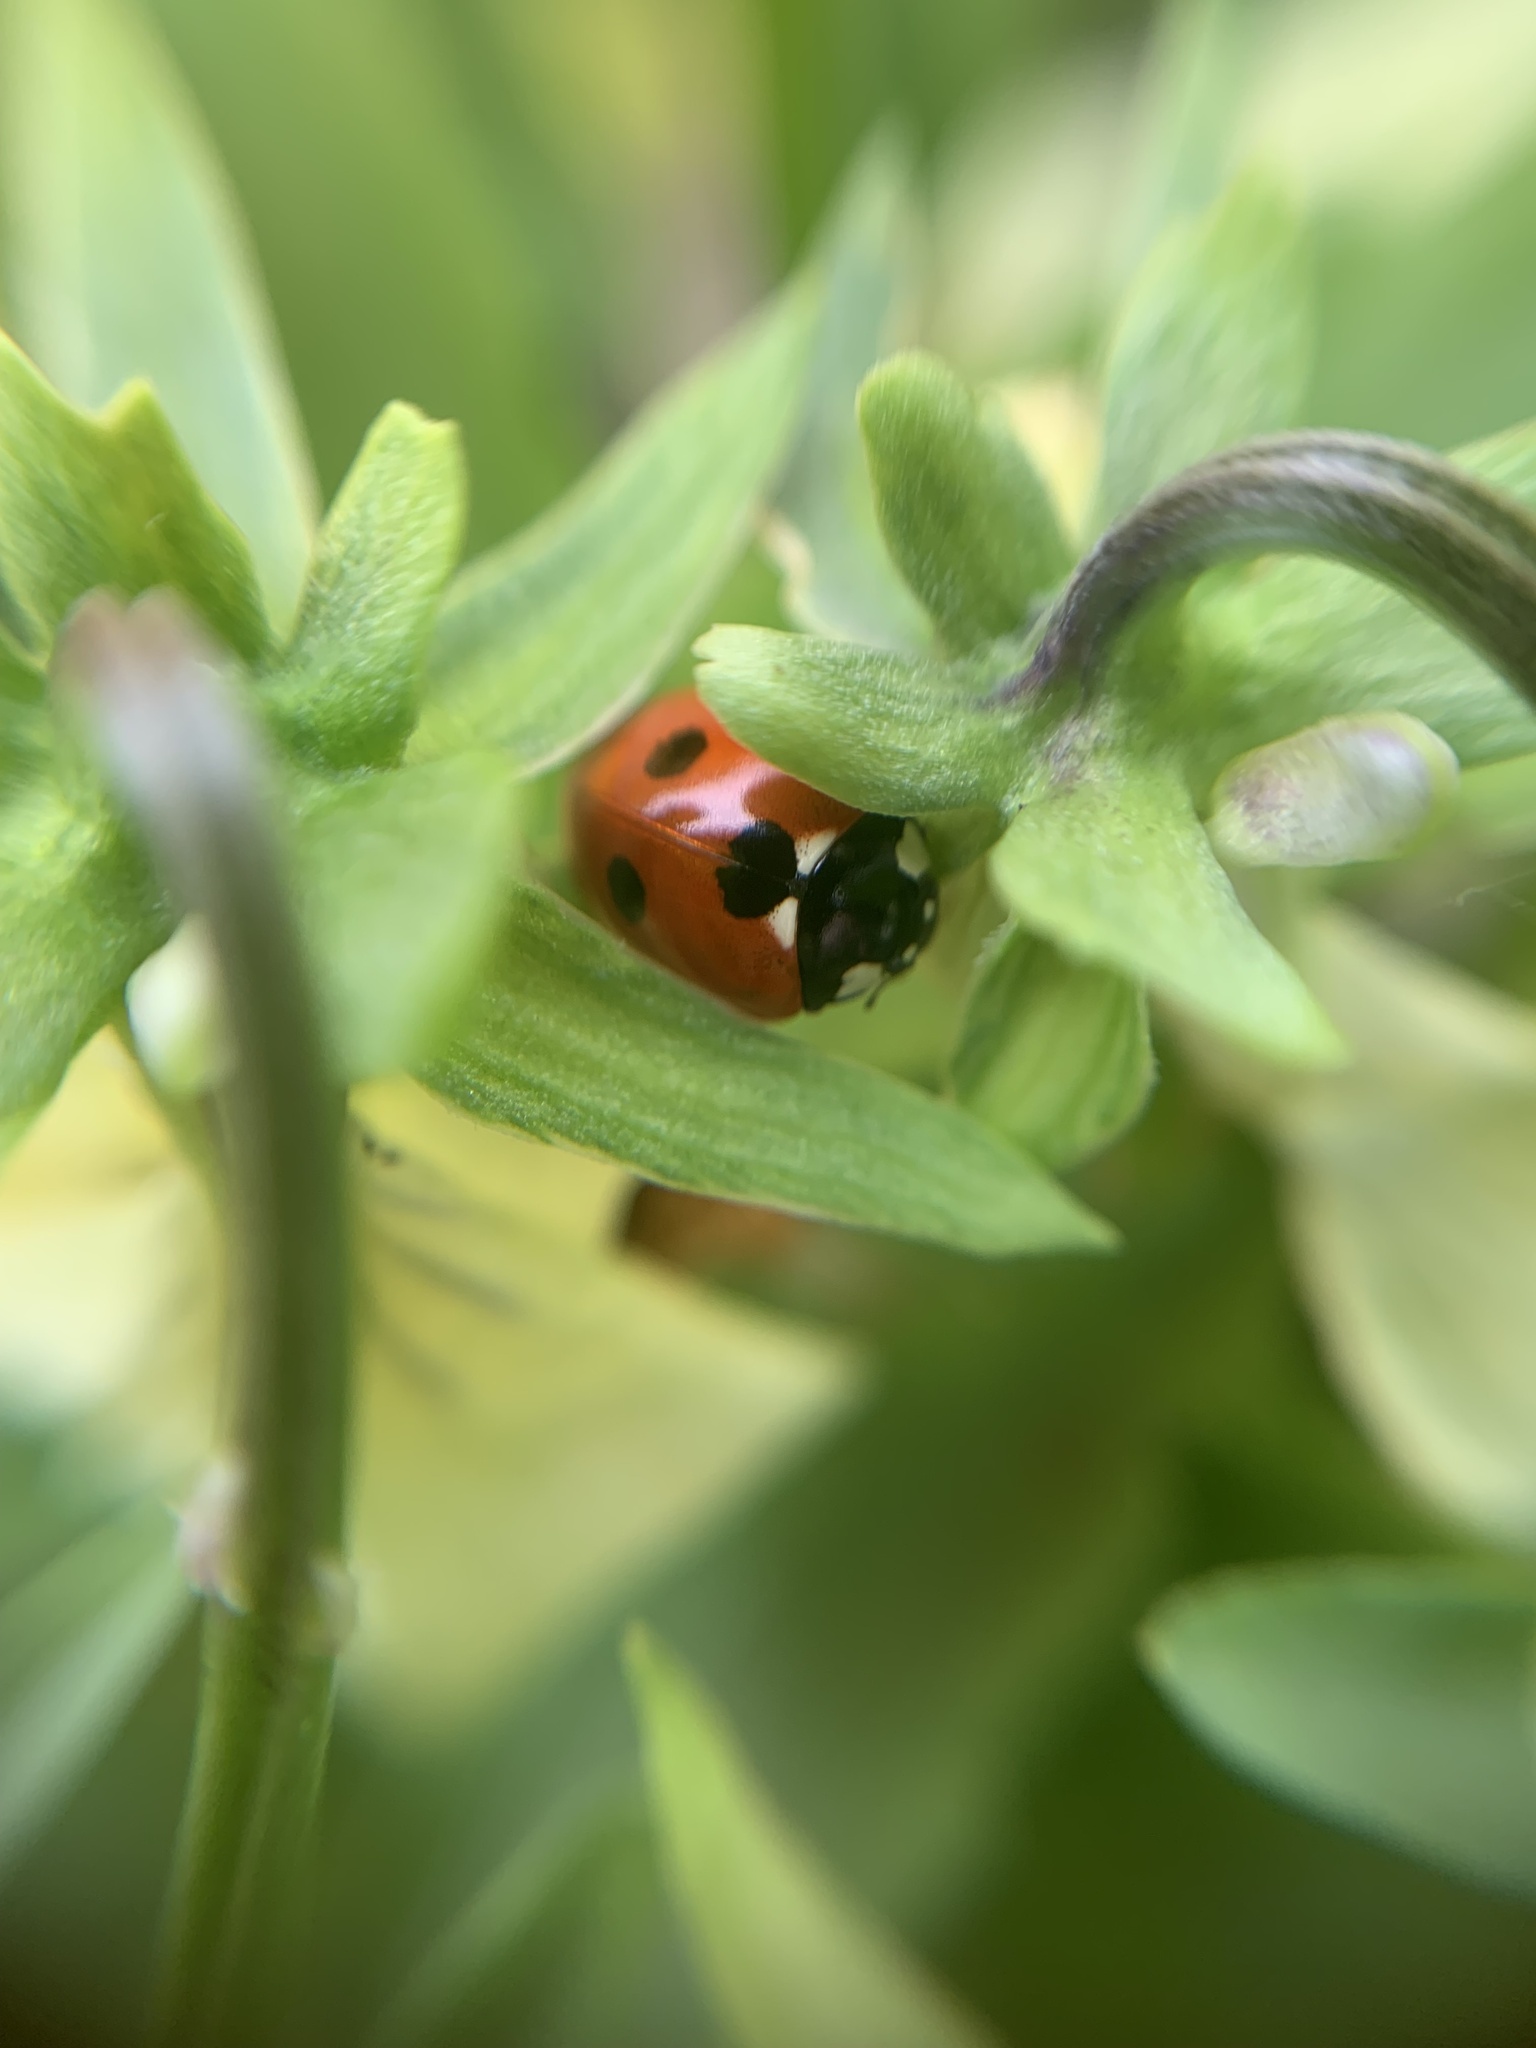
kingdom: Animalia
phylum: Arthropoda
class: Insecta
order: Coleoptera
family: Coccinellidae
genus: Coccinella
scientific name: Coccinella septempunctata
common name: Sevenspotted lady beetle
